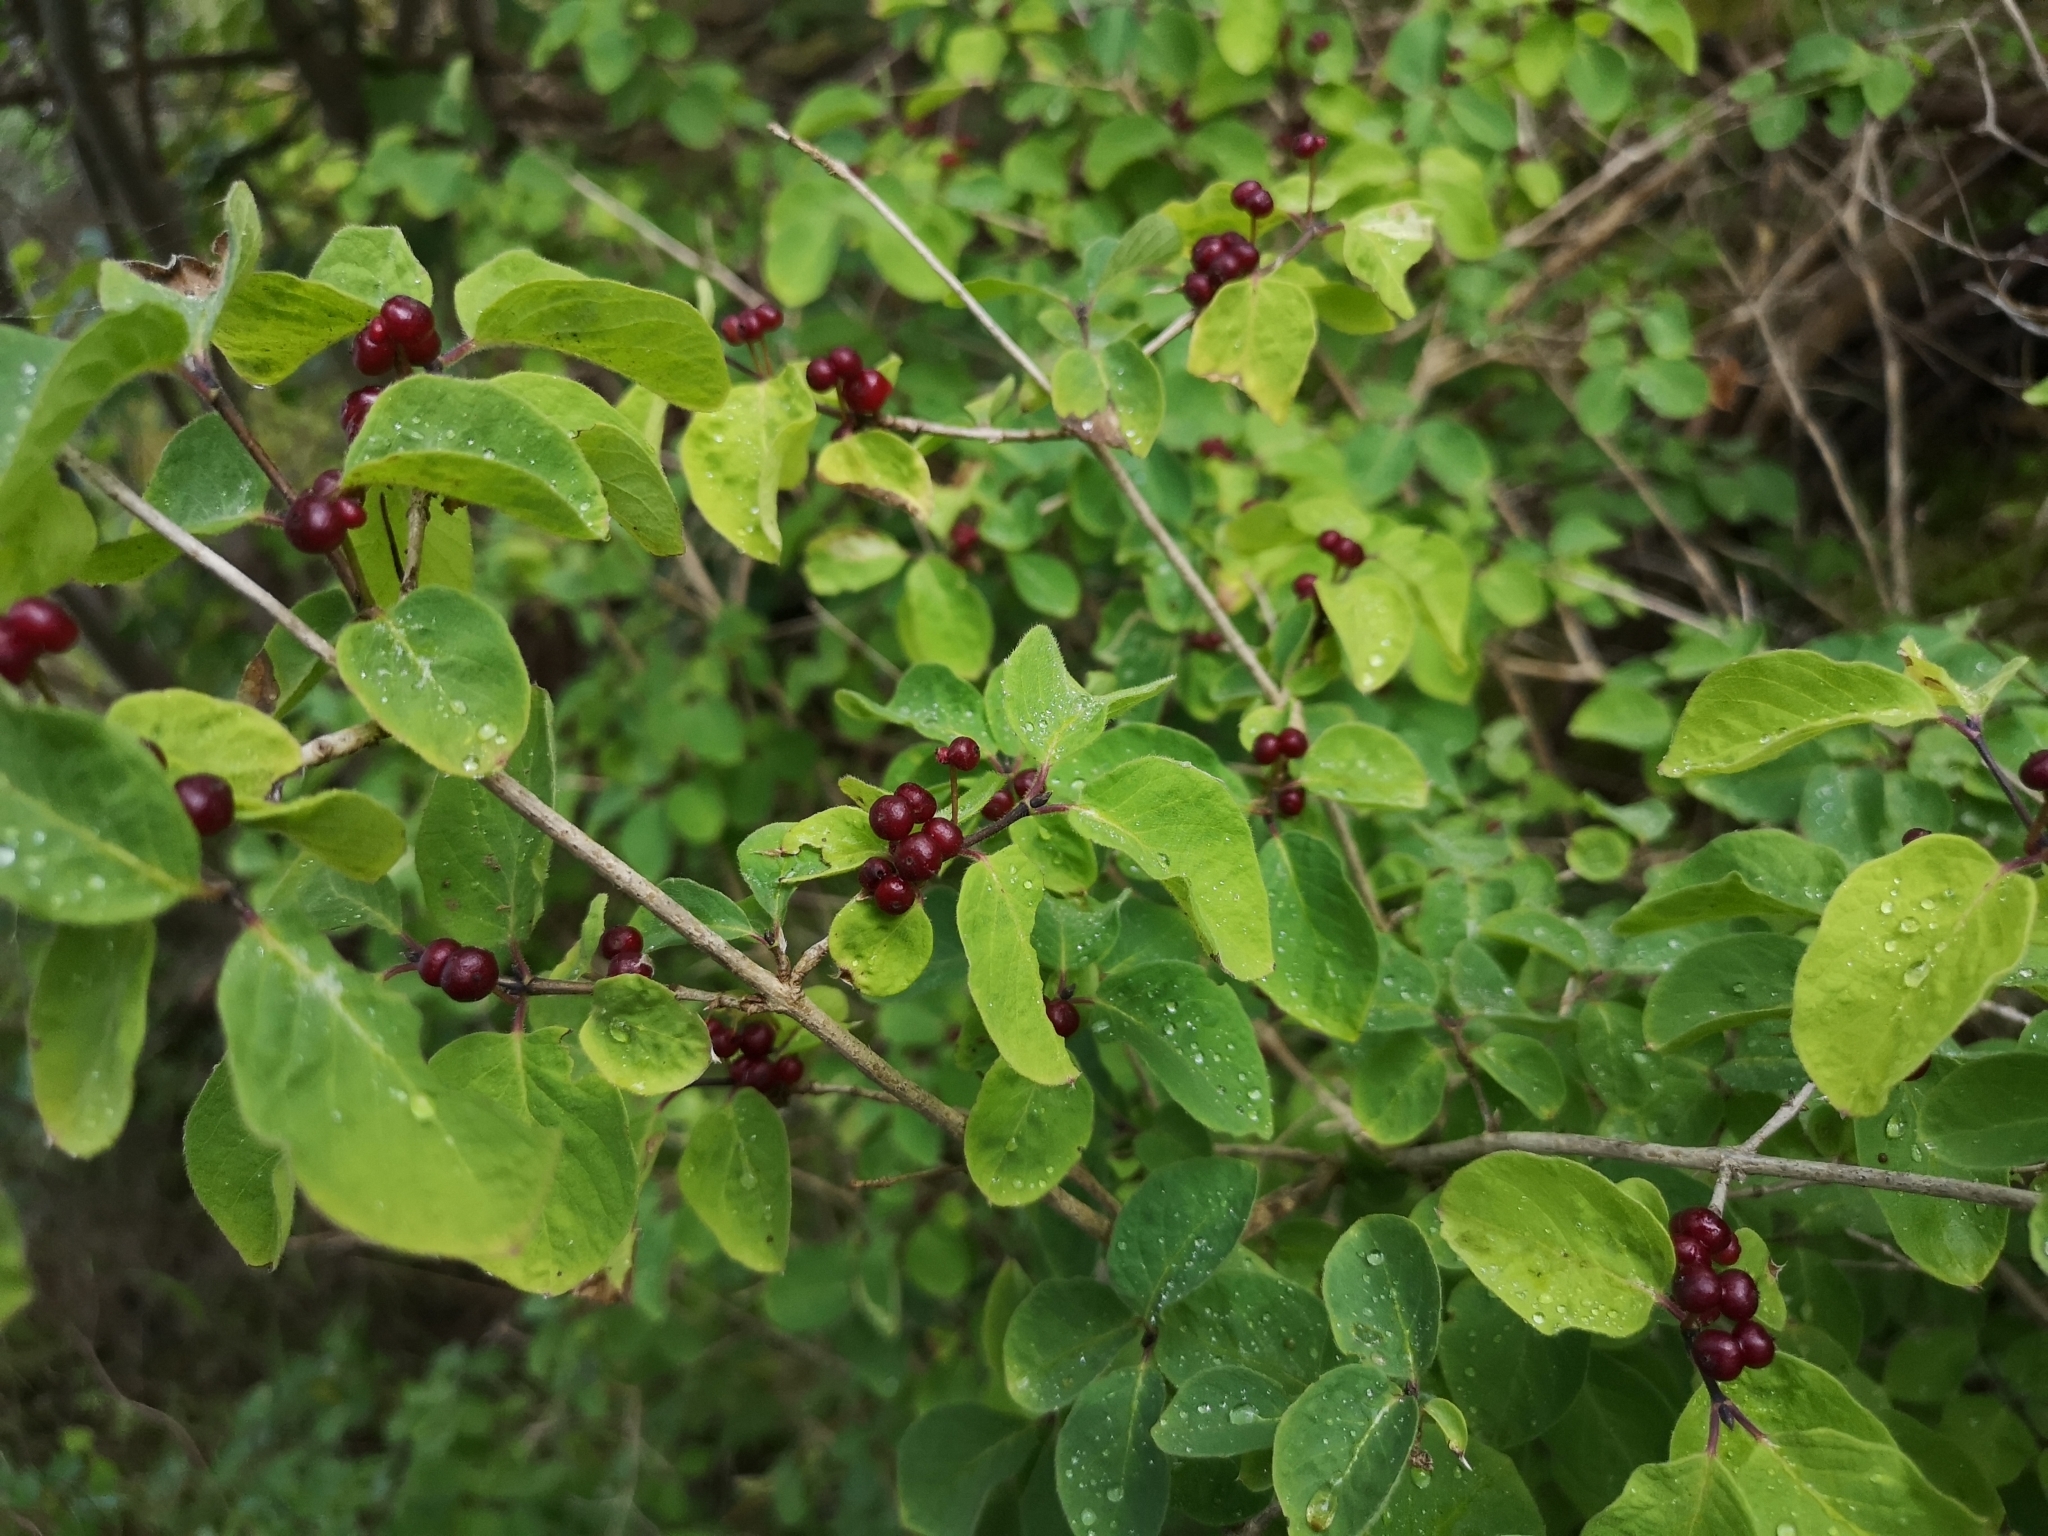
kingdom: Plantae
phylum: Tracheophyta
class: Magnoliopsida
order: Dipsacales
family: Caprifoliaceae
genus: Lonicera
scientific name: Lonicera xylosteum
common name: Fly honeysuckle
